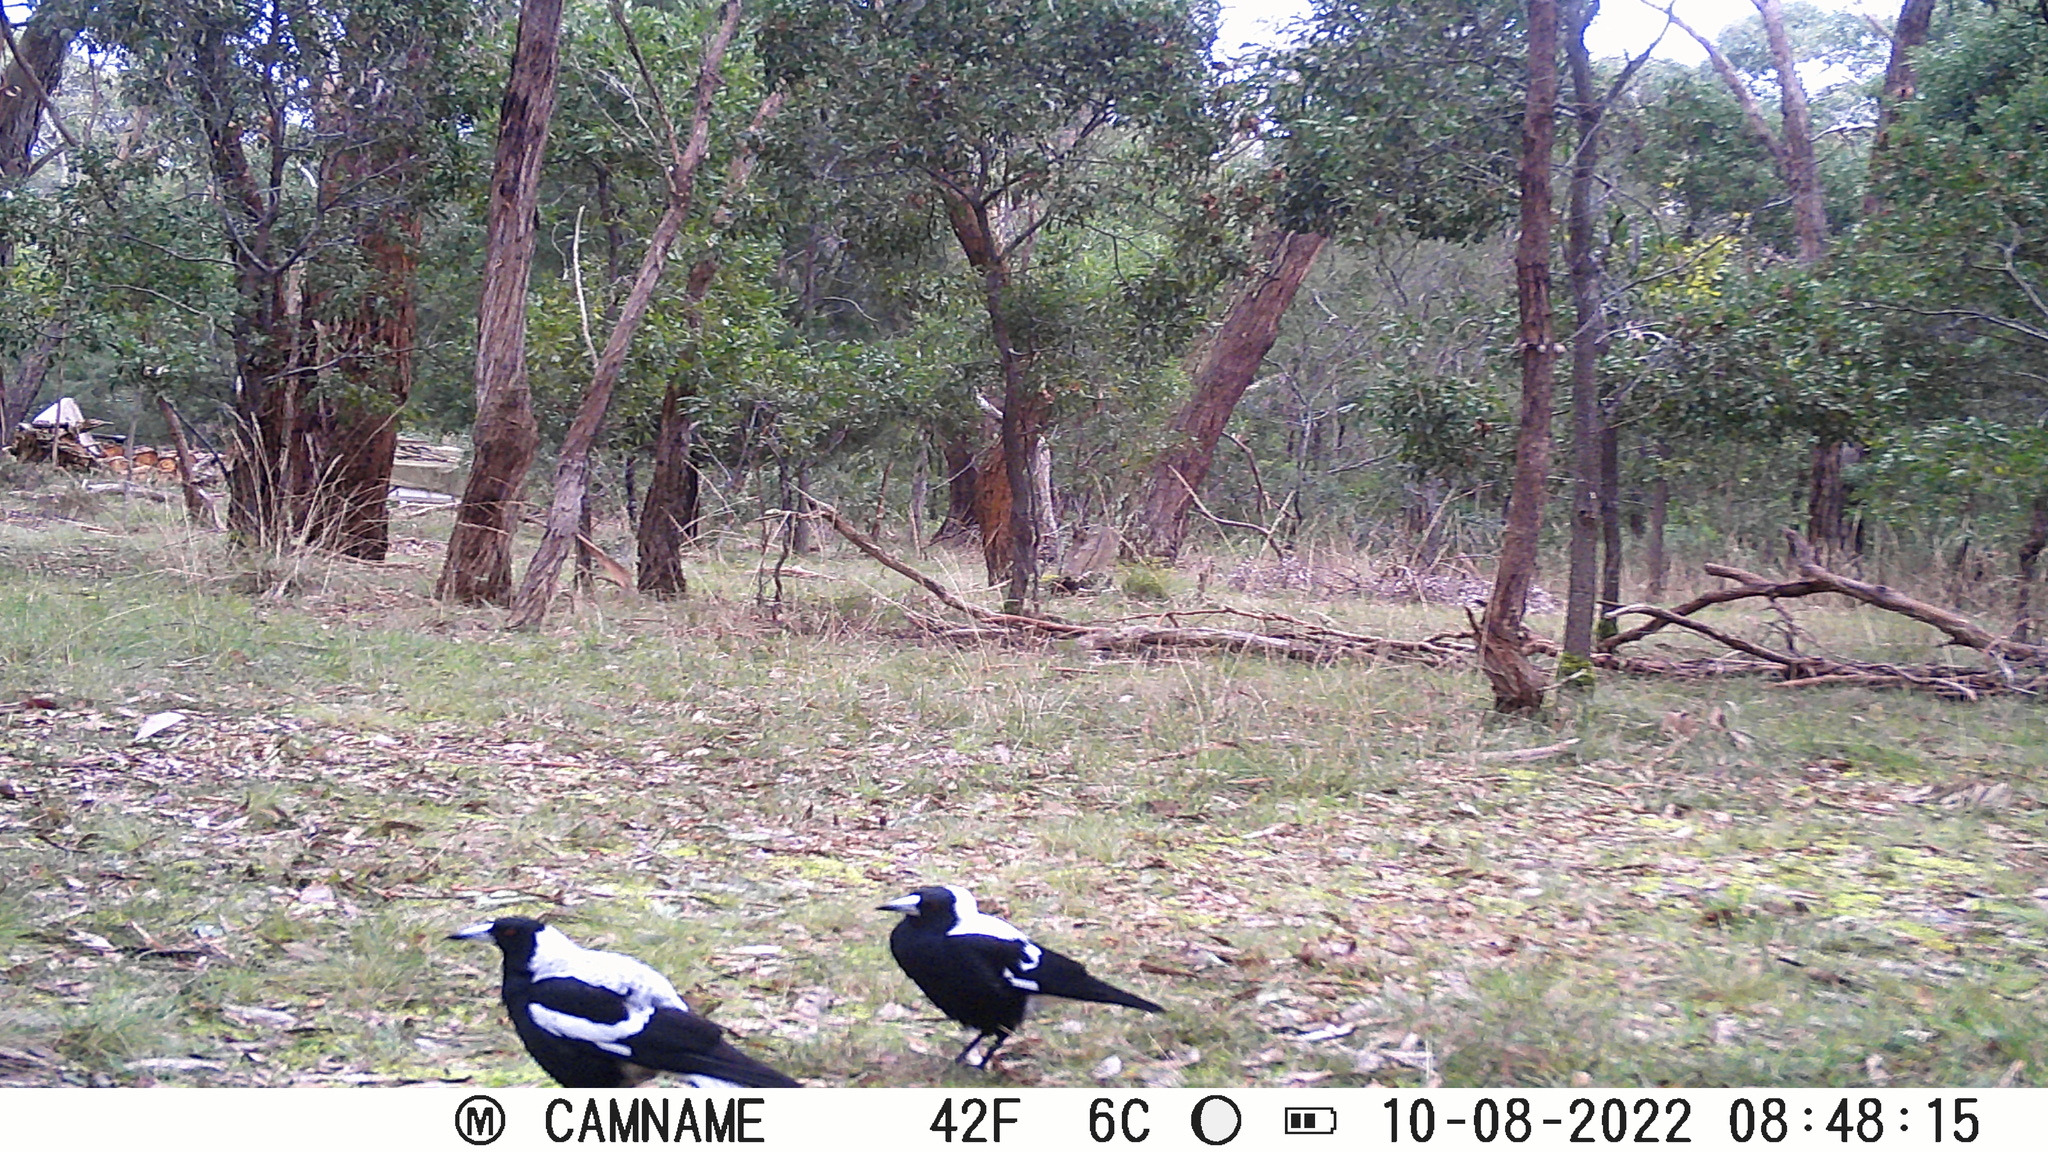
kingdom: Animalia
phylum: Chordata
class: Aves
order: Passeriformes
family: Cracticidae
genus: Gymnorhina
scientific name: Gymnorhina tibicen
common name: Australian magpie
